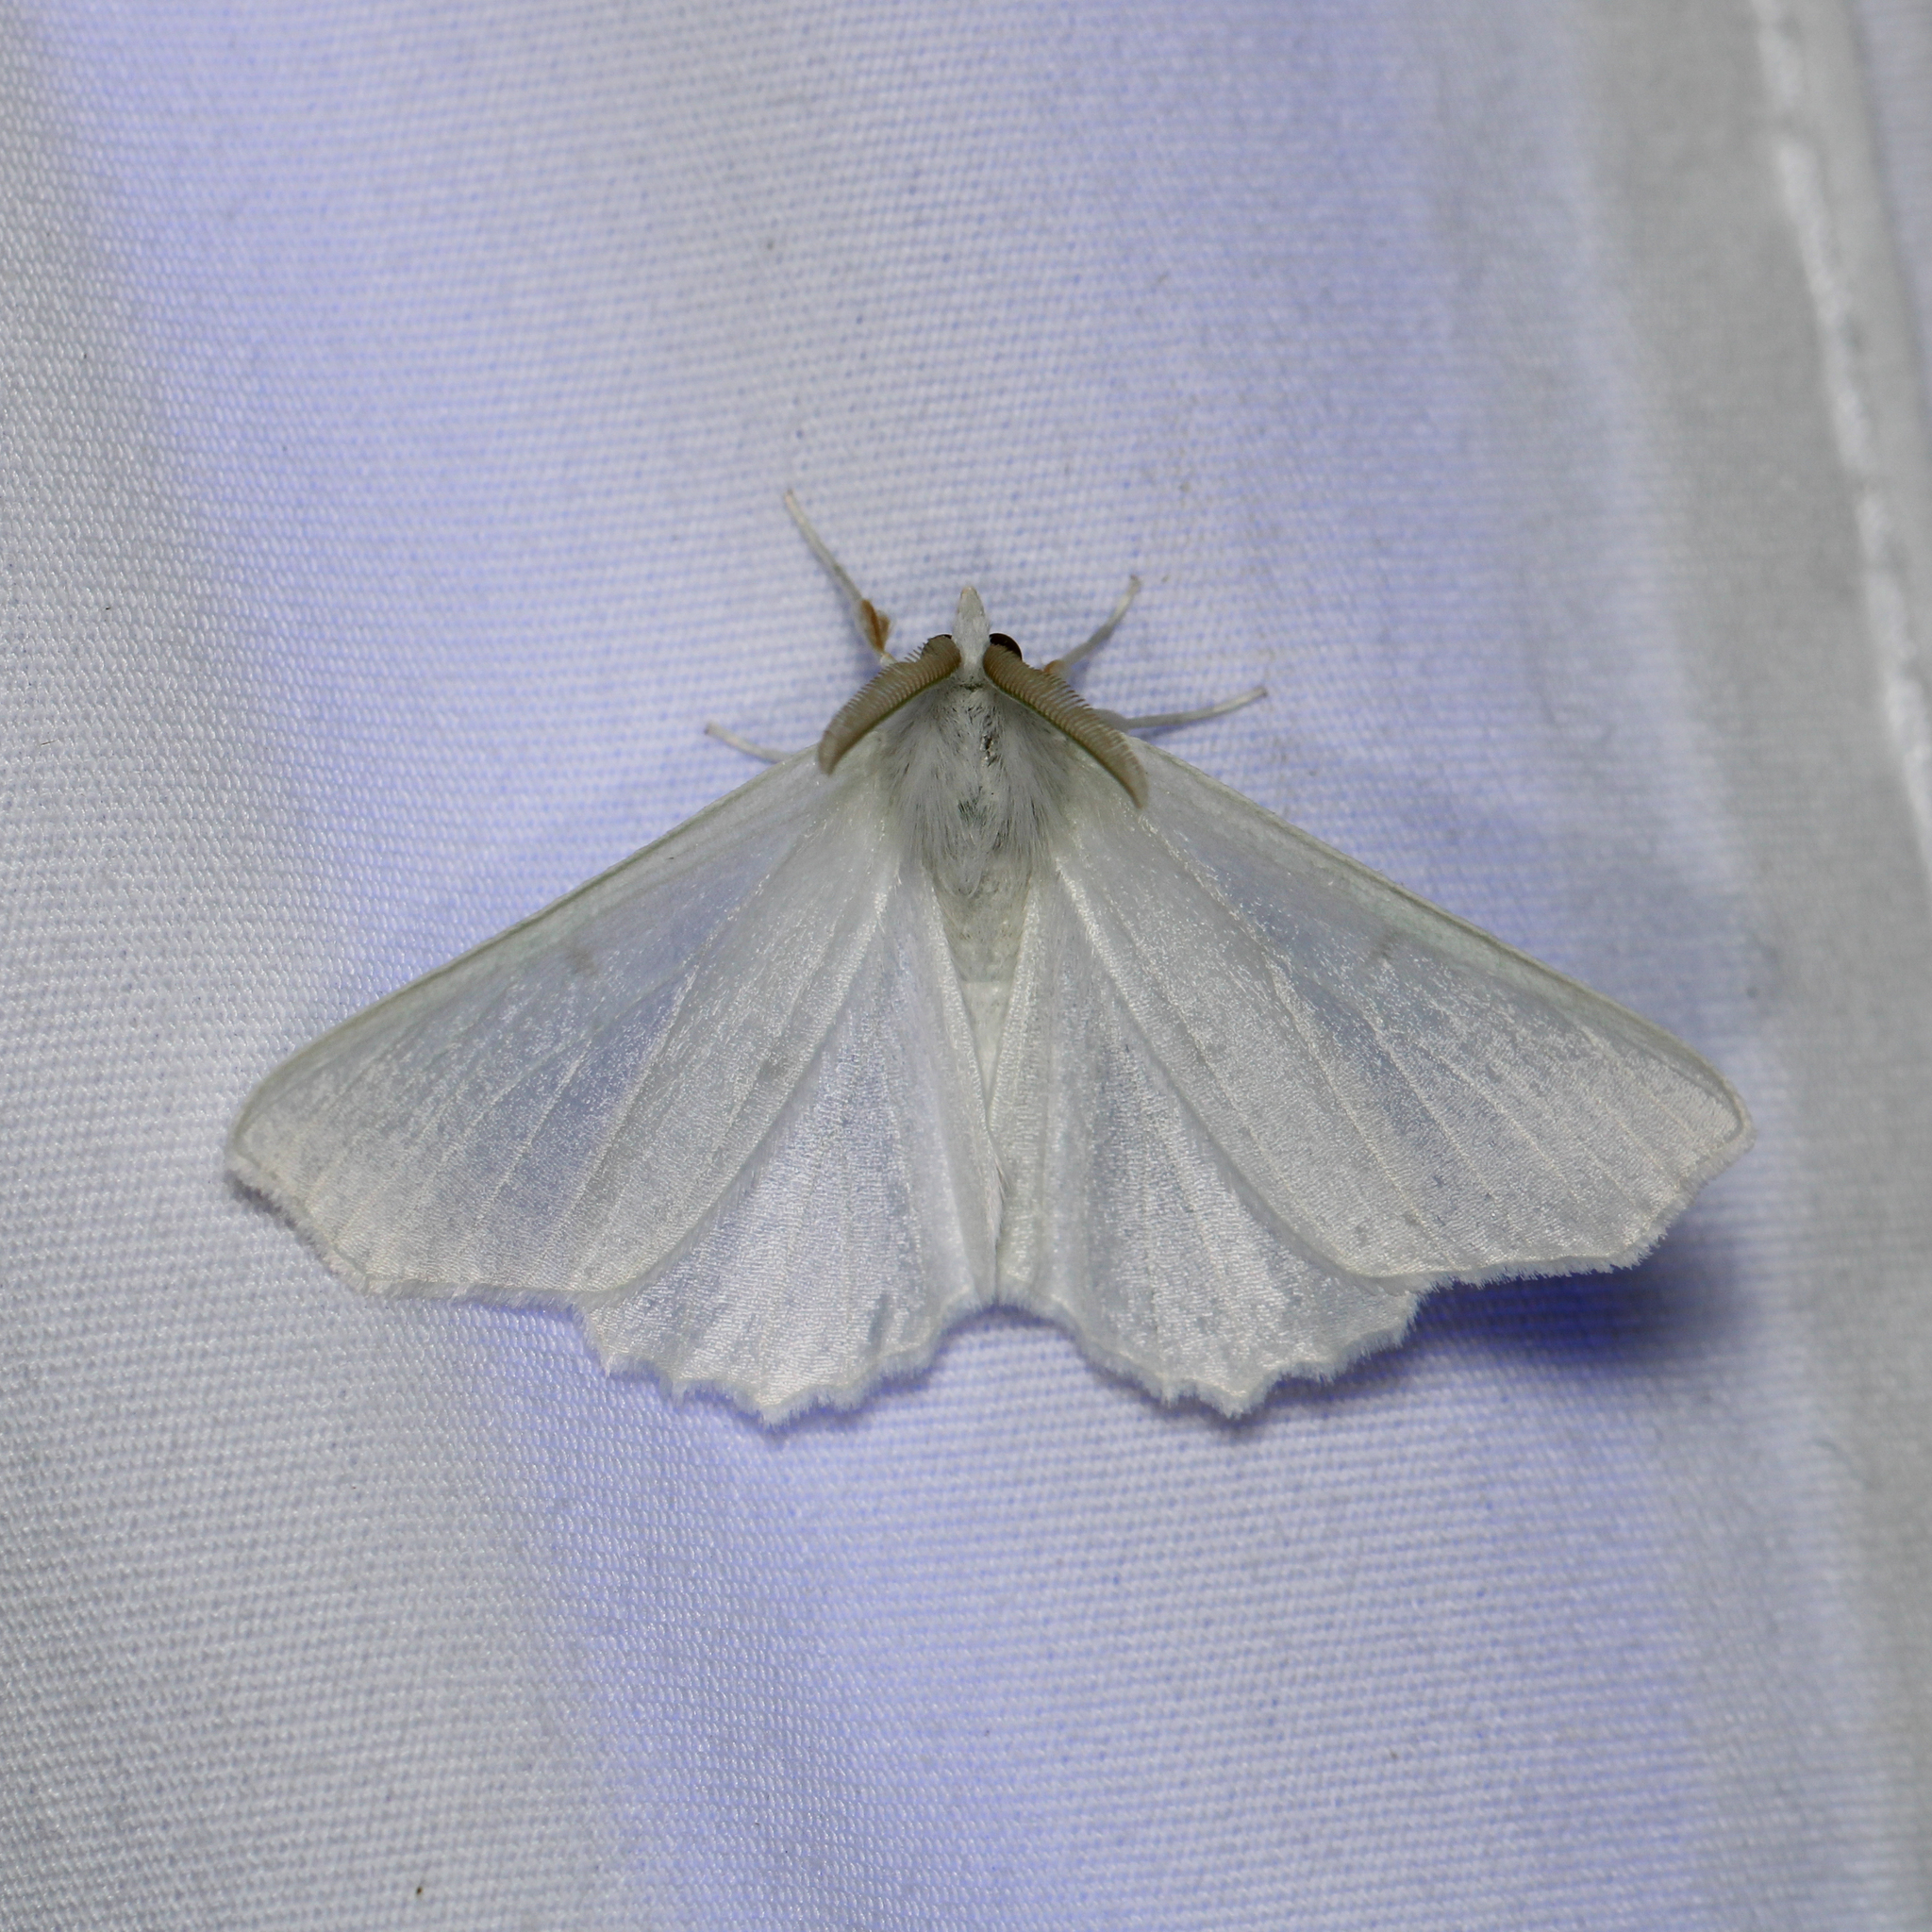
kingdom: Animalia
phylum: Arthropoda
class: Insecta
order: Lepidoptera
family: Geometridae
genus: Ennomos
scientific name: Ennomos subsignaria
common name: Elm spanworm
